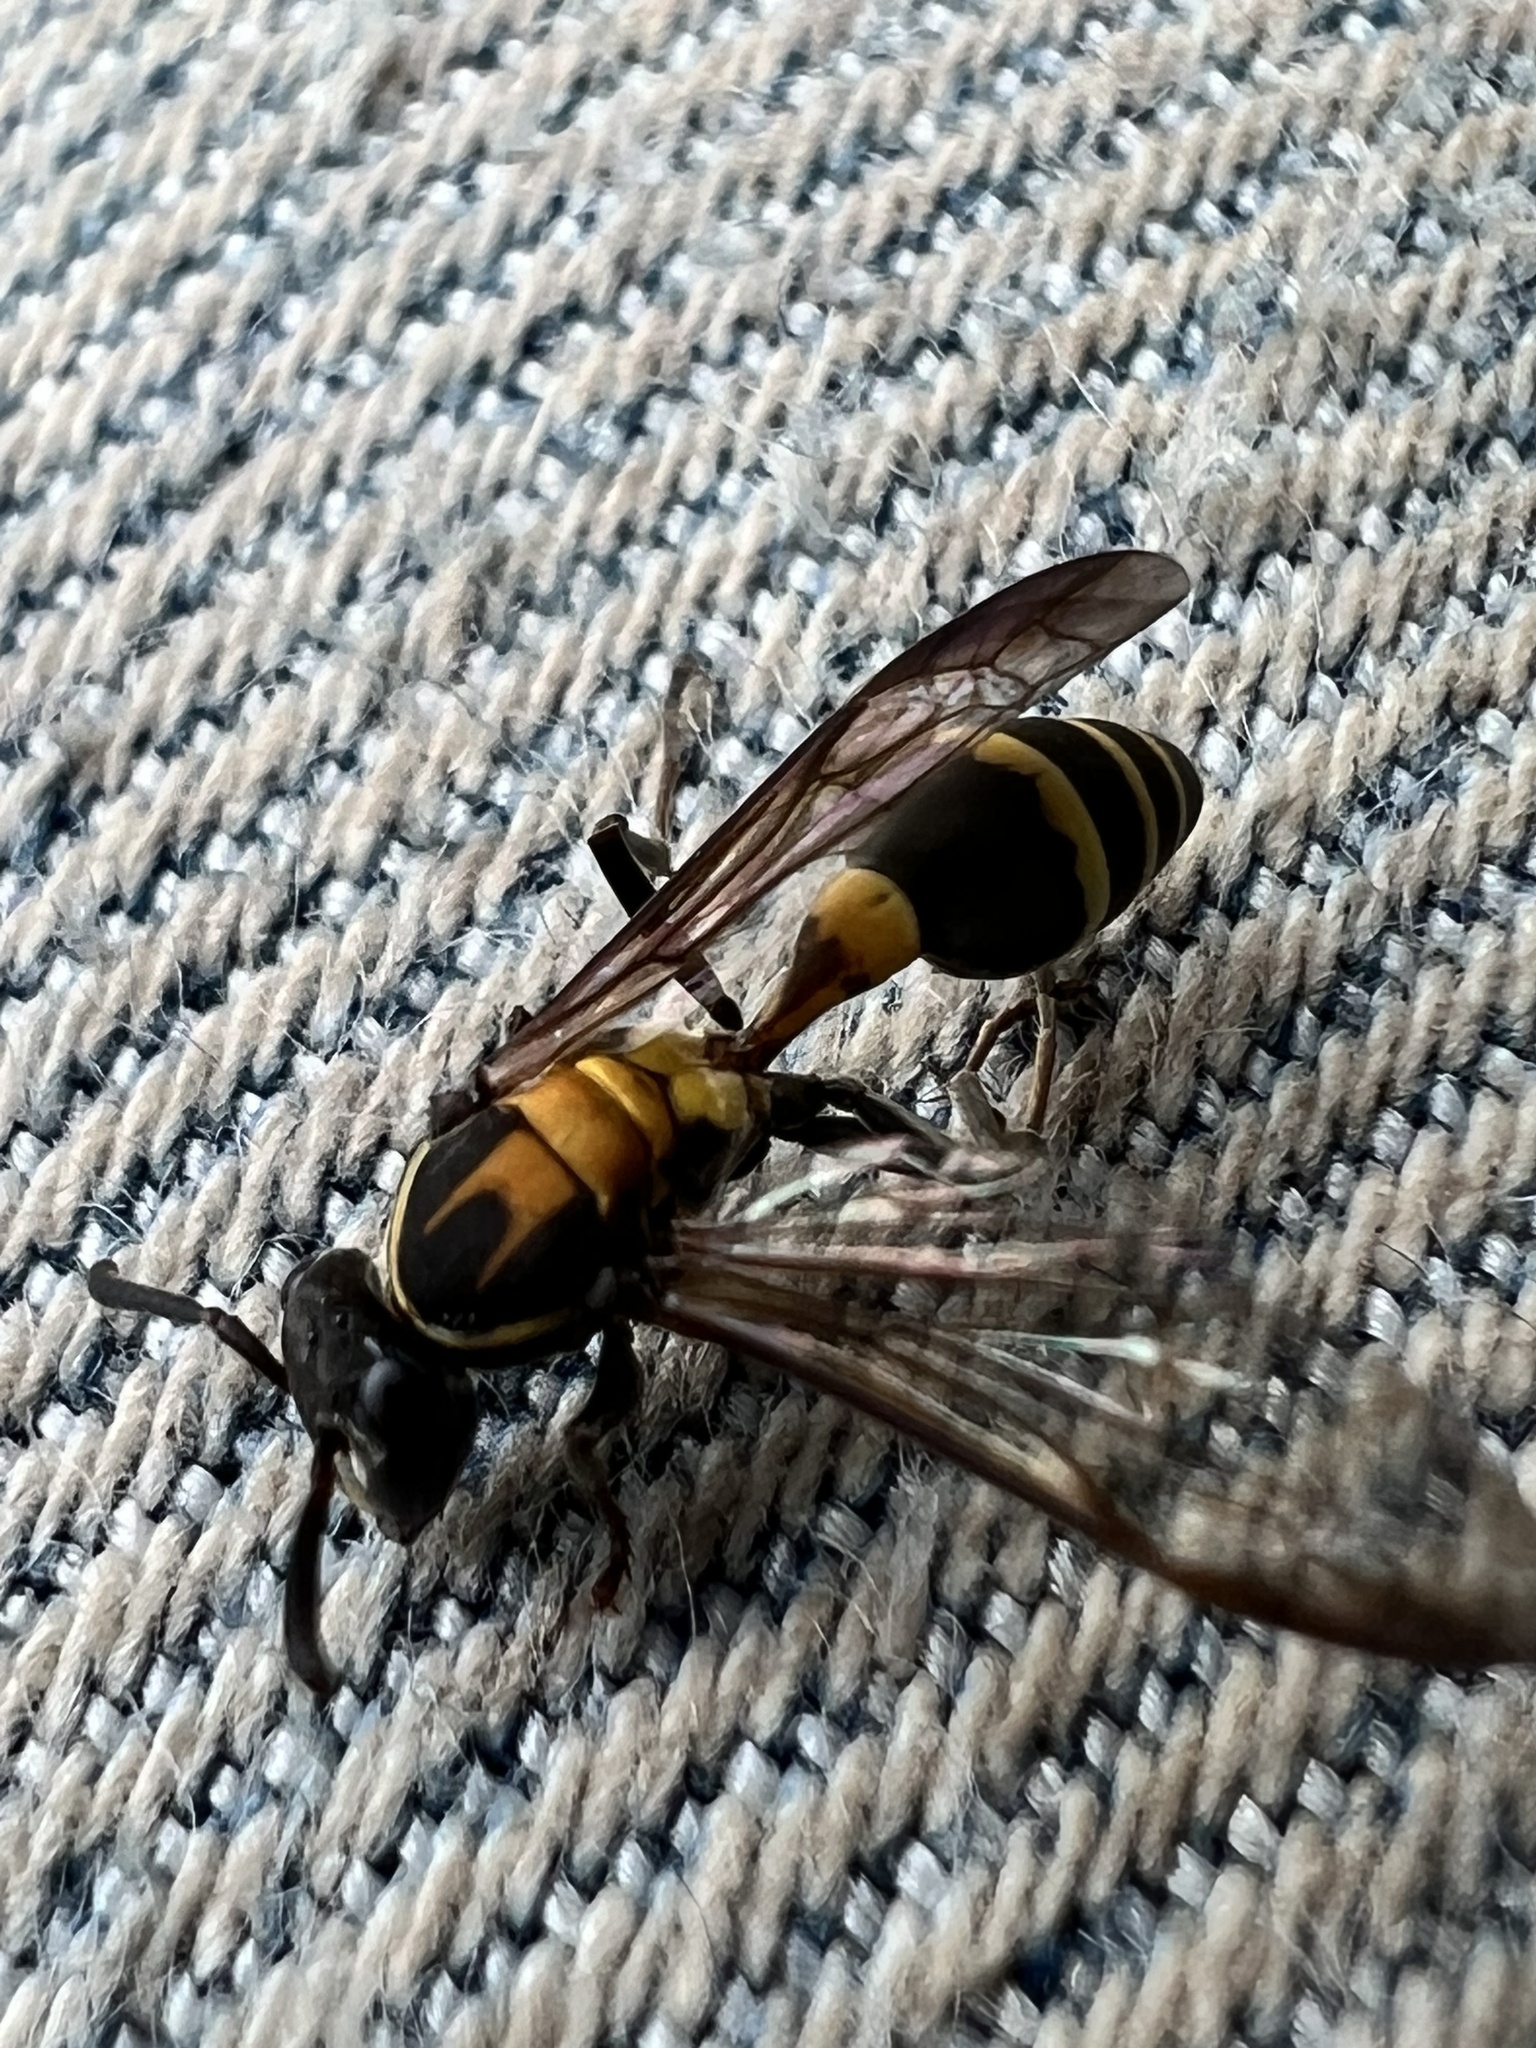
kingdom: Animalia
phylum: Arthropoda
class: Insecta
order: Hymenoptera
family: Eumenidae
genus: Polybia
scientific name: Polybia occidentalis
